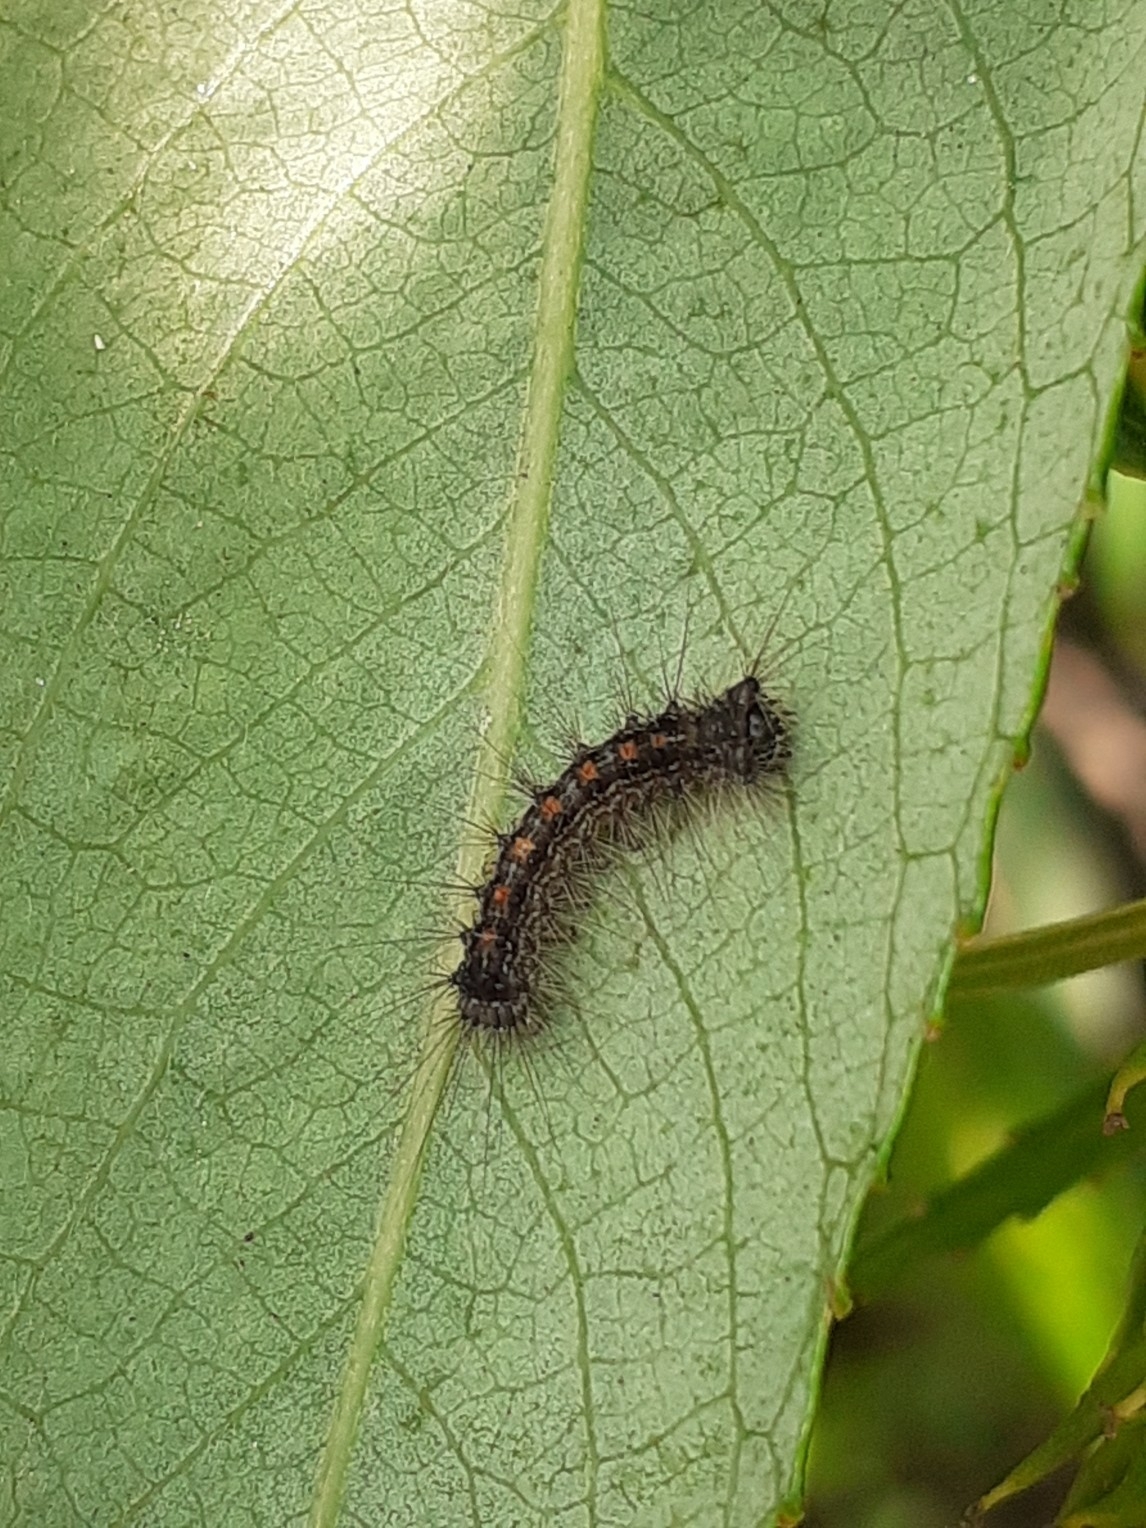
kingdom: Animalia
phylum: Arthropoda
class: Insecta
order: Lepidoptera
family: Erebidae
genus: Lymantria
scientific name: Lymantria dispar
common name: Gypsy moth
